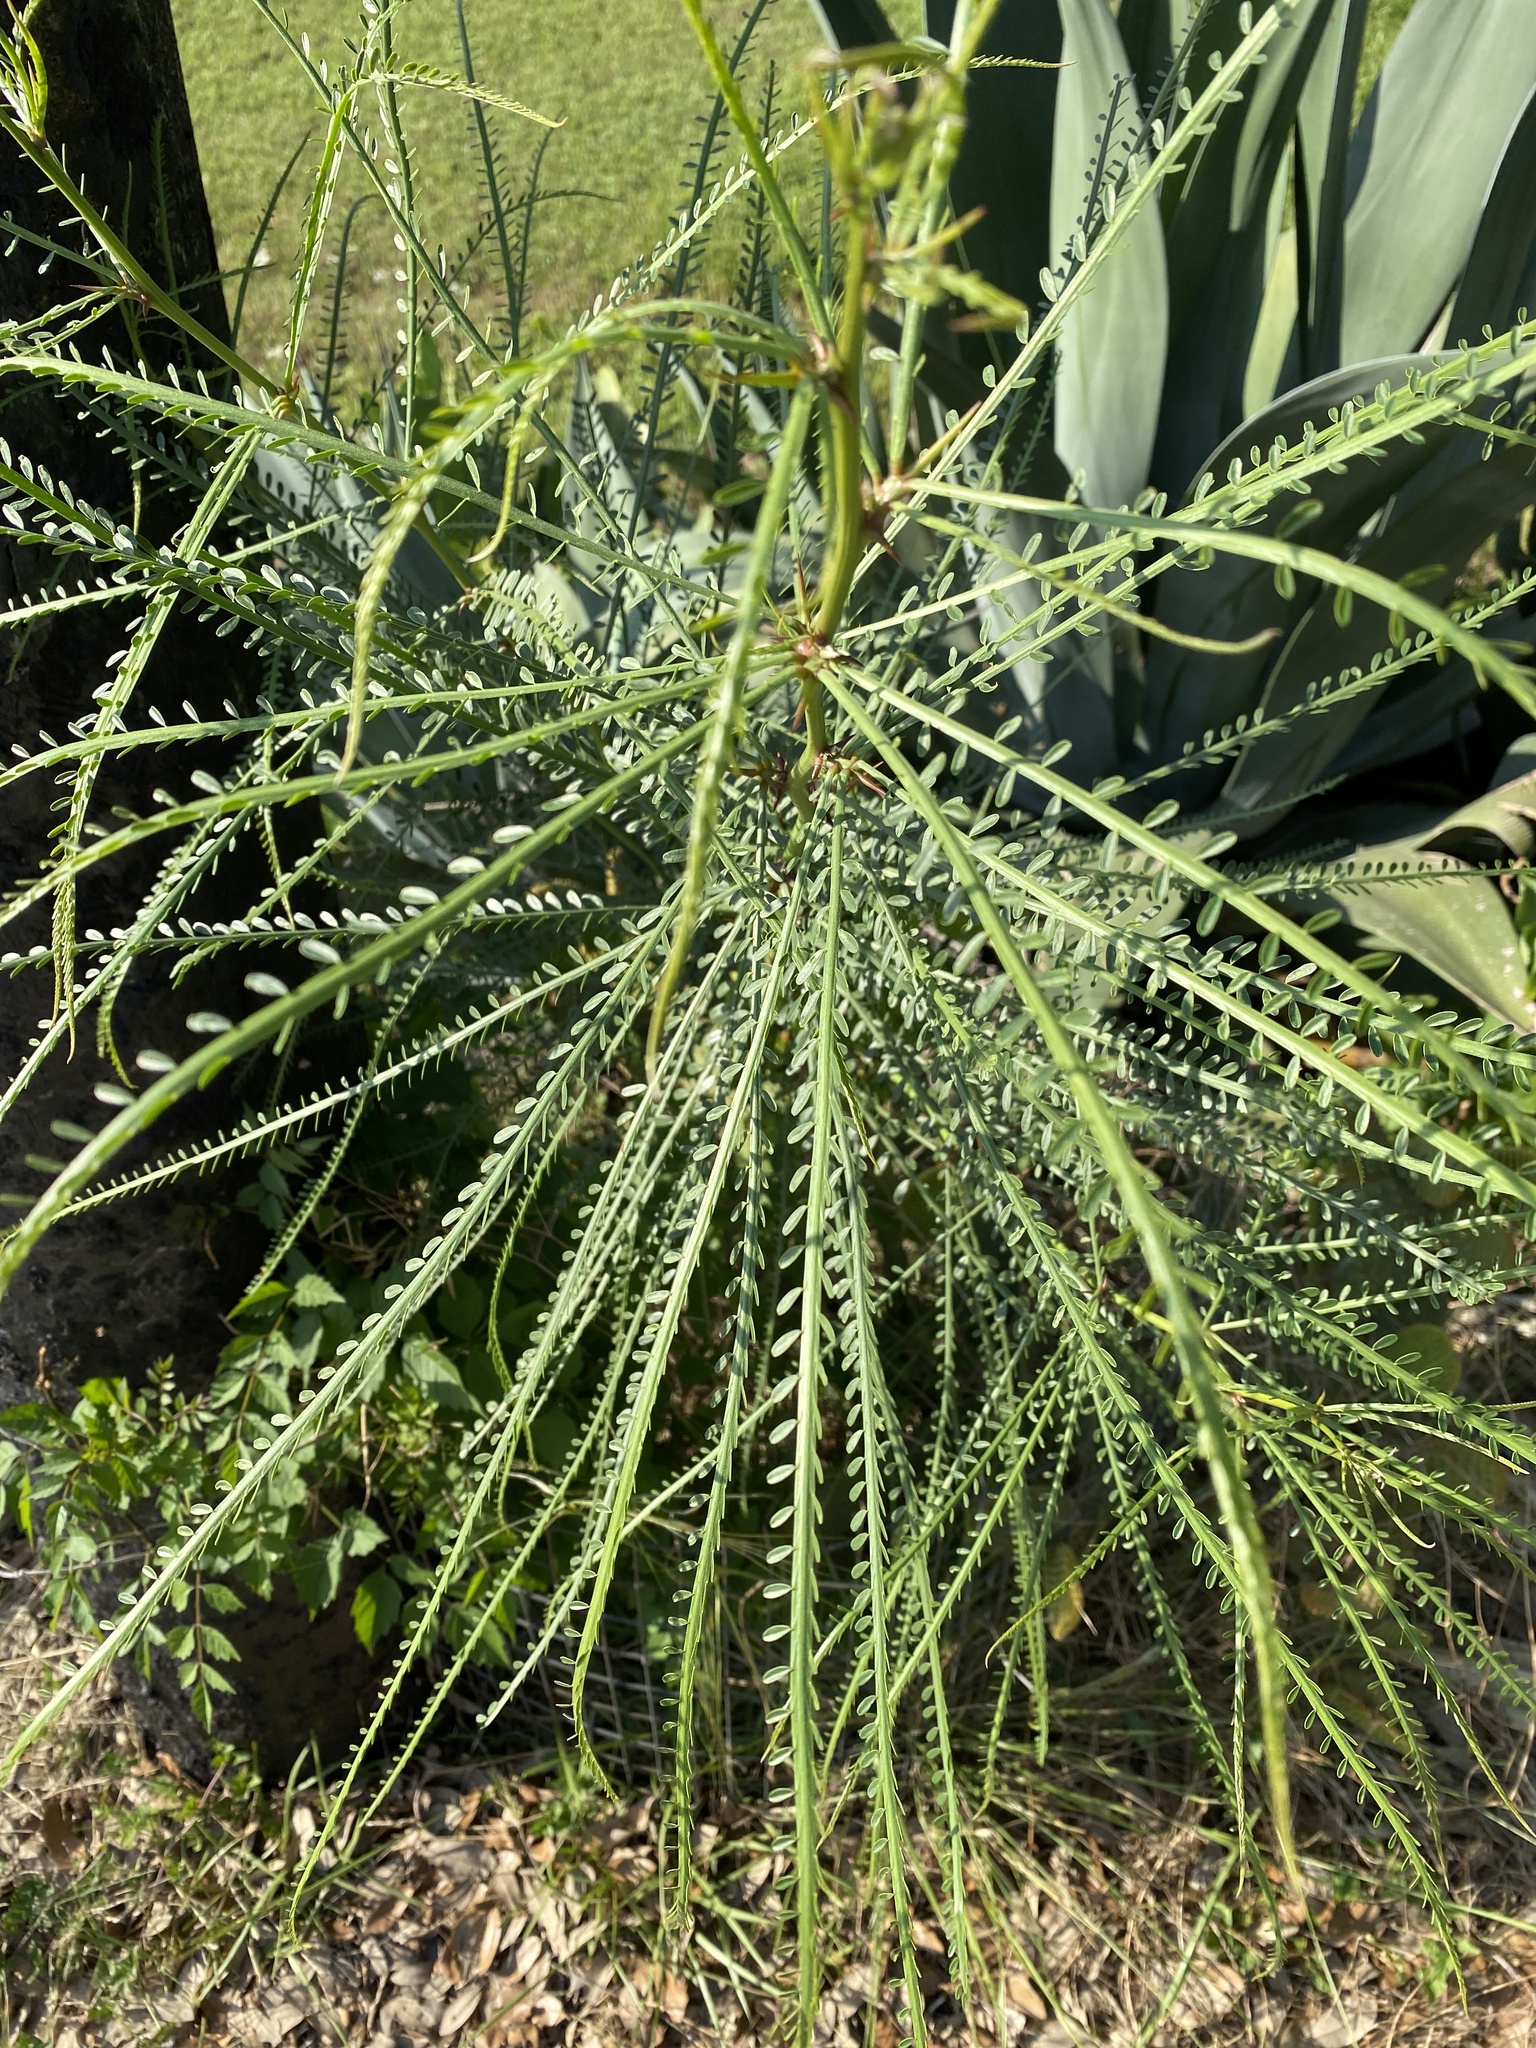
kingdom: Plantae
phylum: Tracheophyta
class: Magnoliopsida
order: Fabales
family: Fabaceae
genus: Parkinsonia
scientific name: Parkinsonia aculeata
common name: Jerusalem thorn
